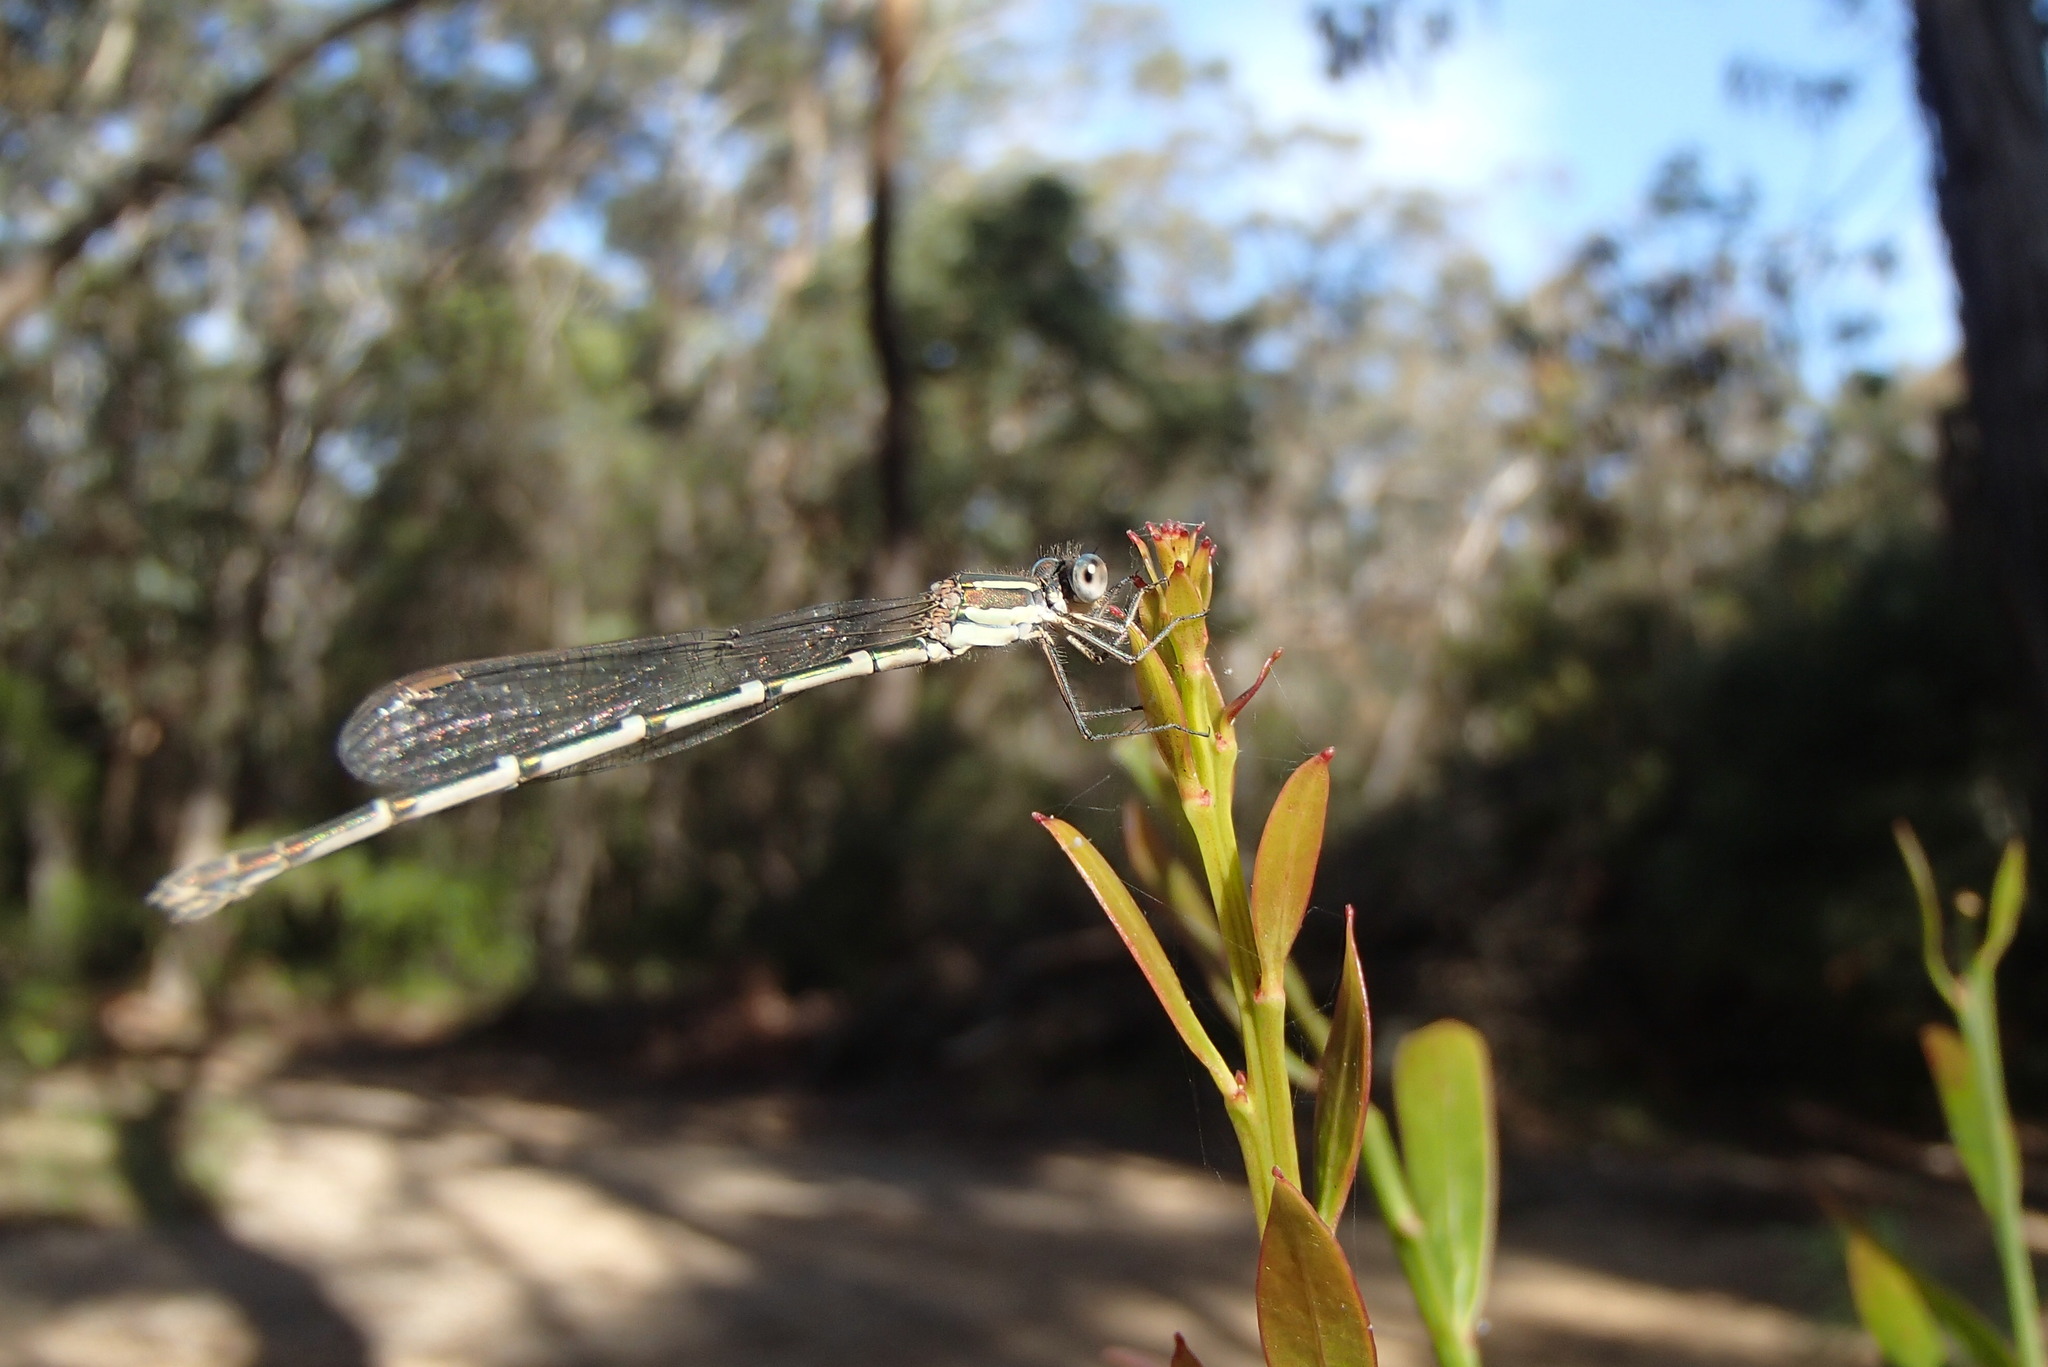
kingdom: Animalia
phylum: Arthropoda
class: Insecta
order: Odonata
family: Lestidae
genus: Austrolestes
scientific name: Austrolestes leda
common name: Wandering ringtail
